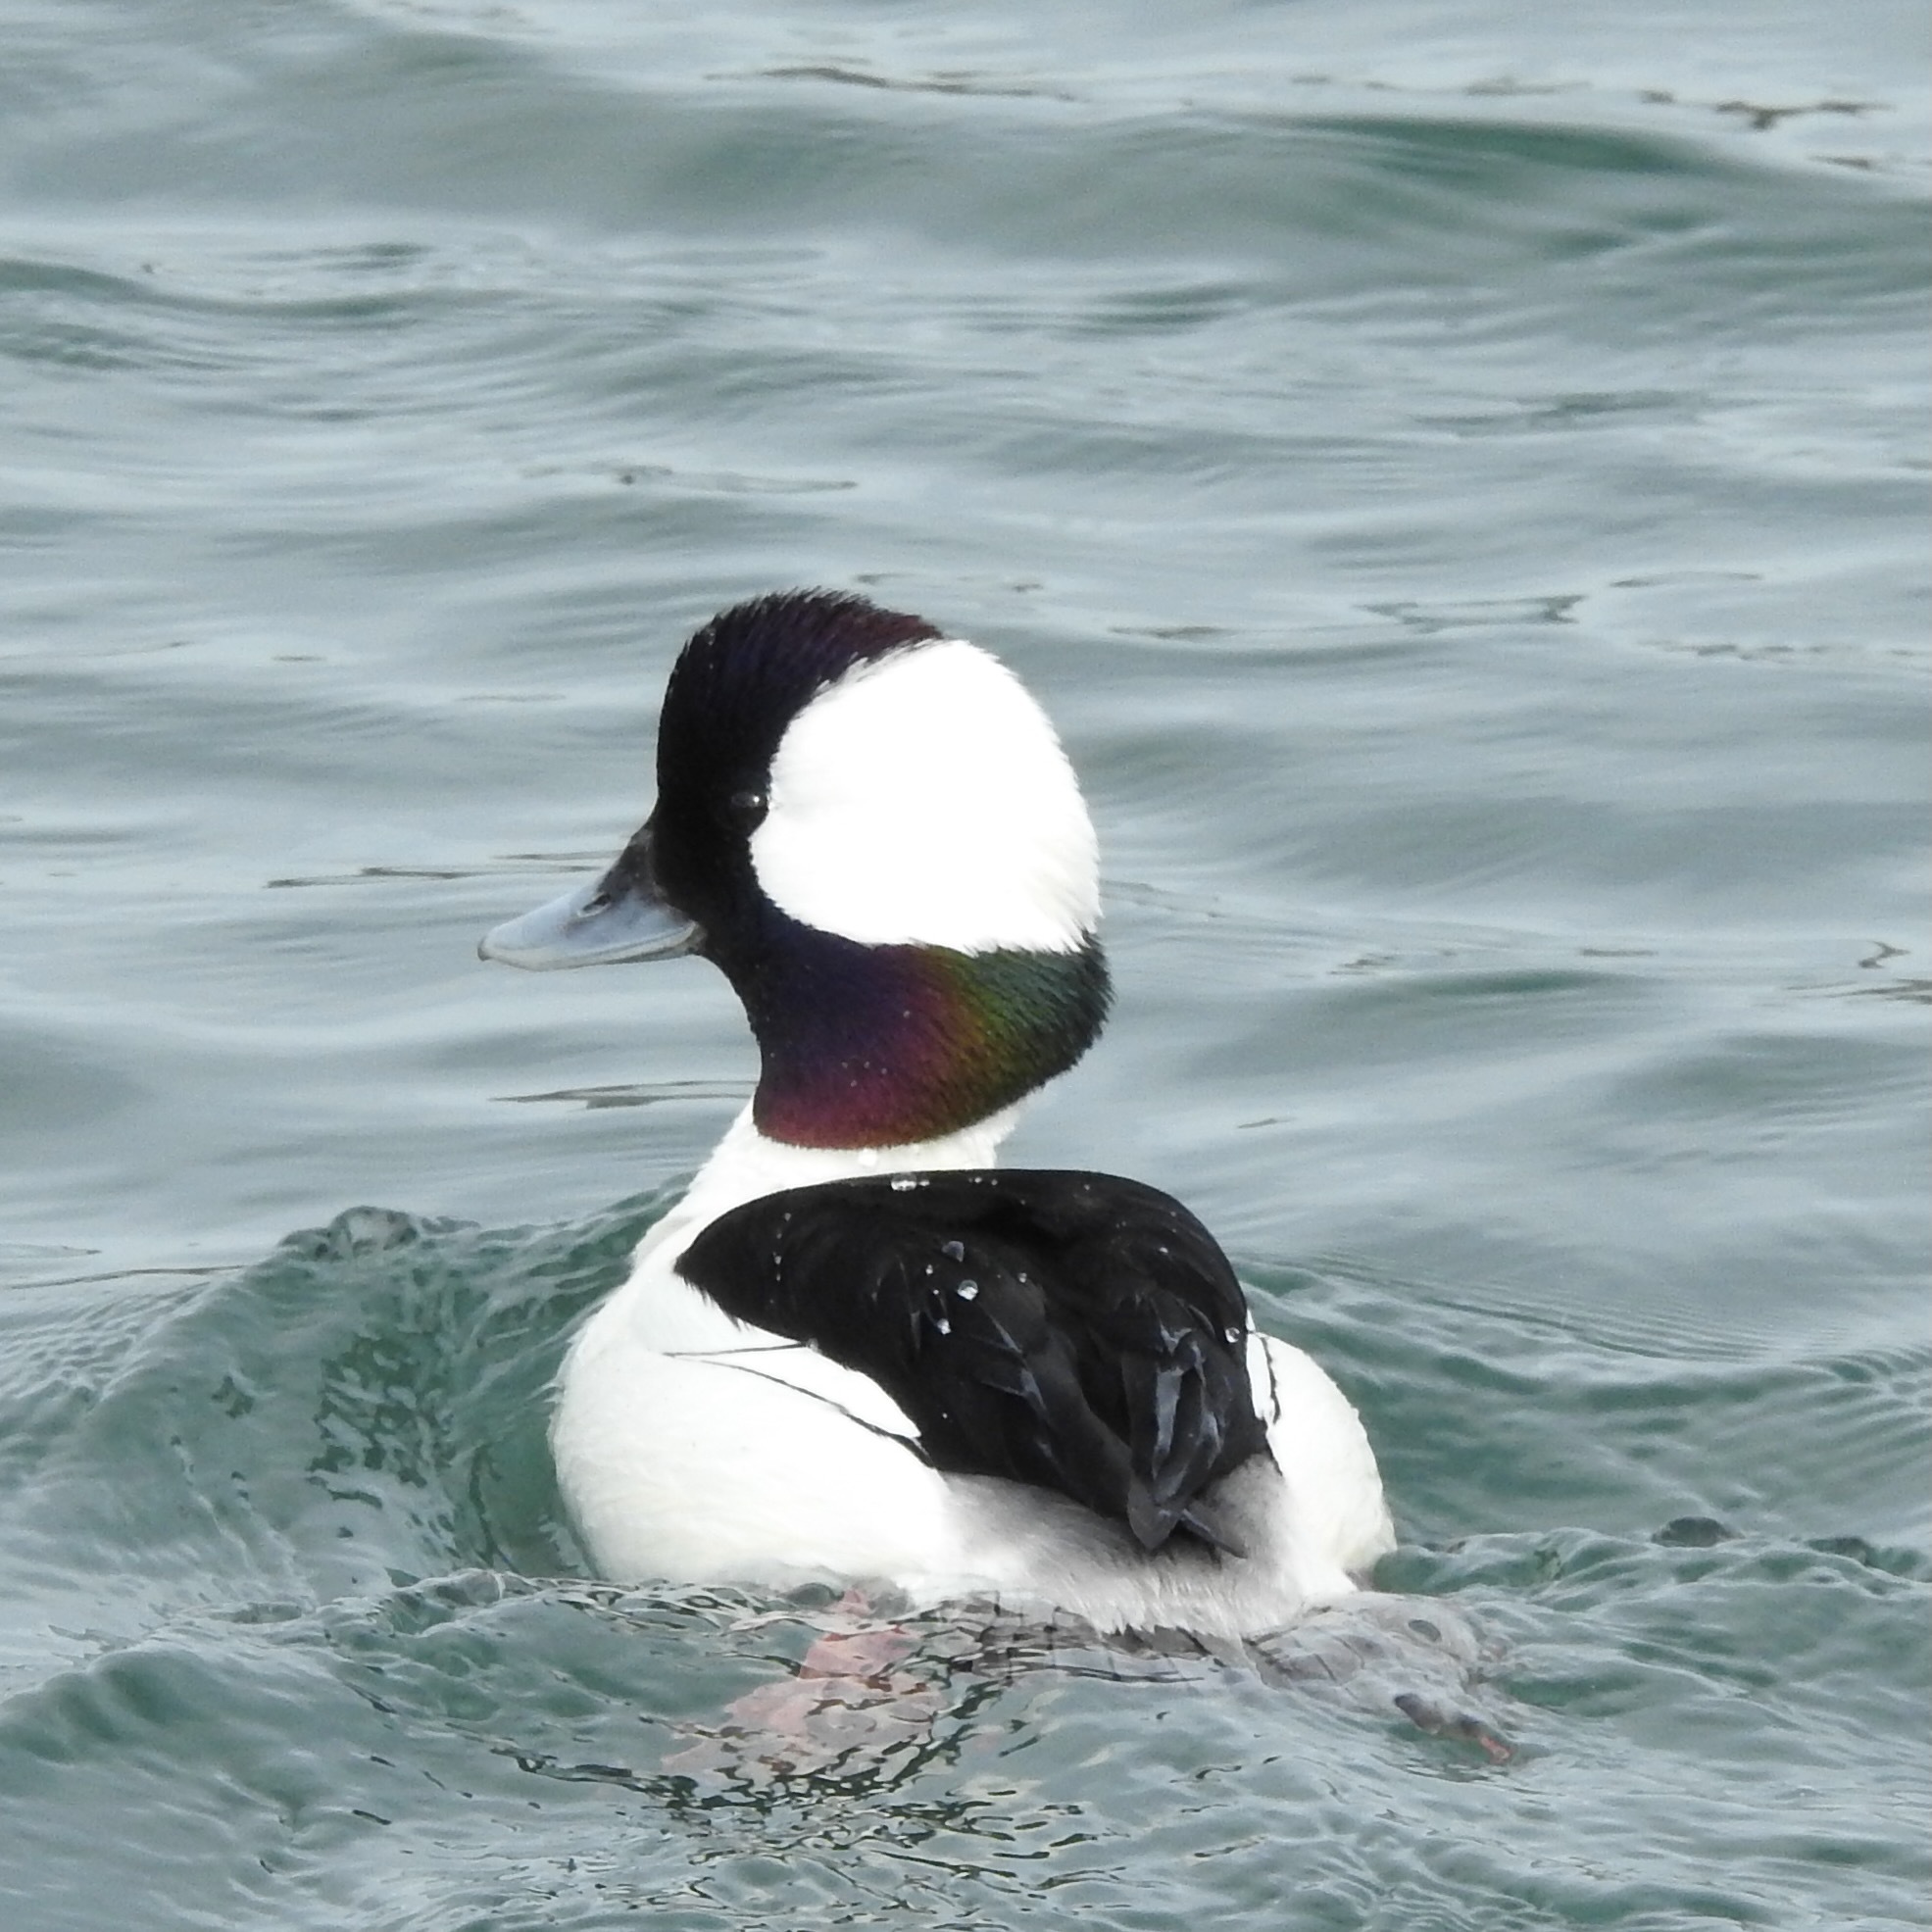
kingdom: Animalia
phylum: Chordata
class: Aves
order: Anseriformes
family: Anatidae
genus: Bucephala
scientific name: Bucephala albeola
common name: Bufflehead
